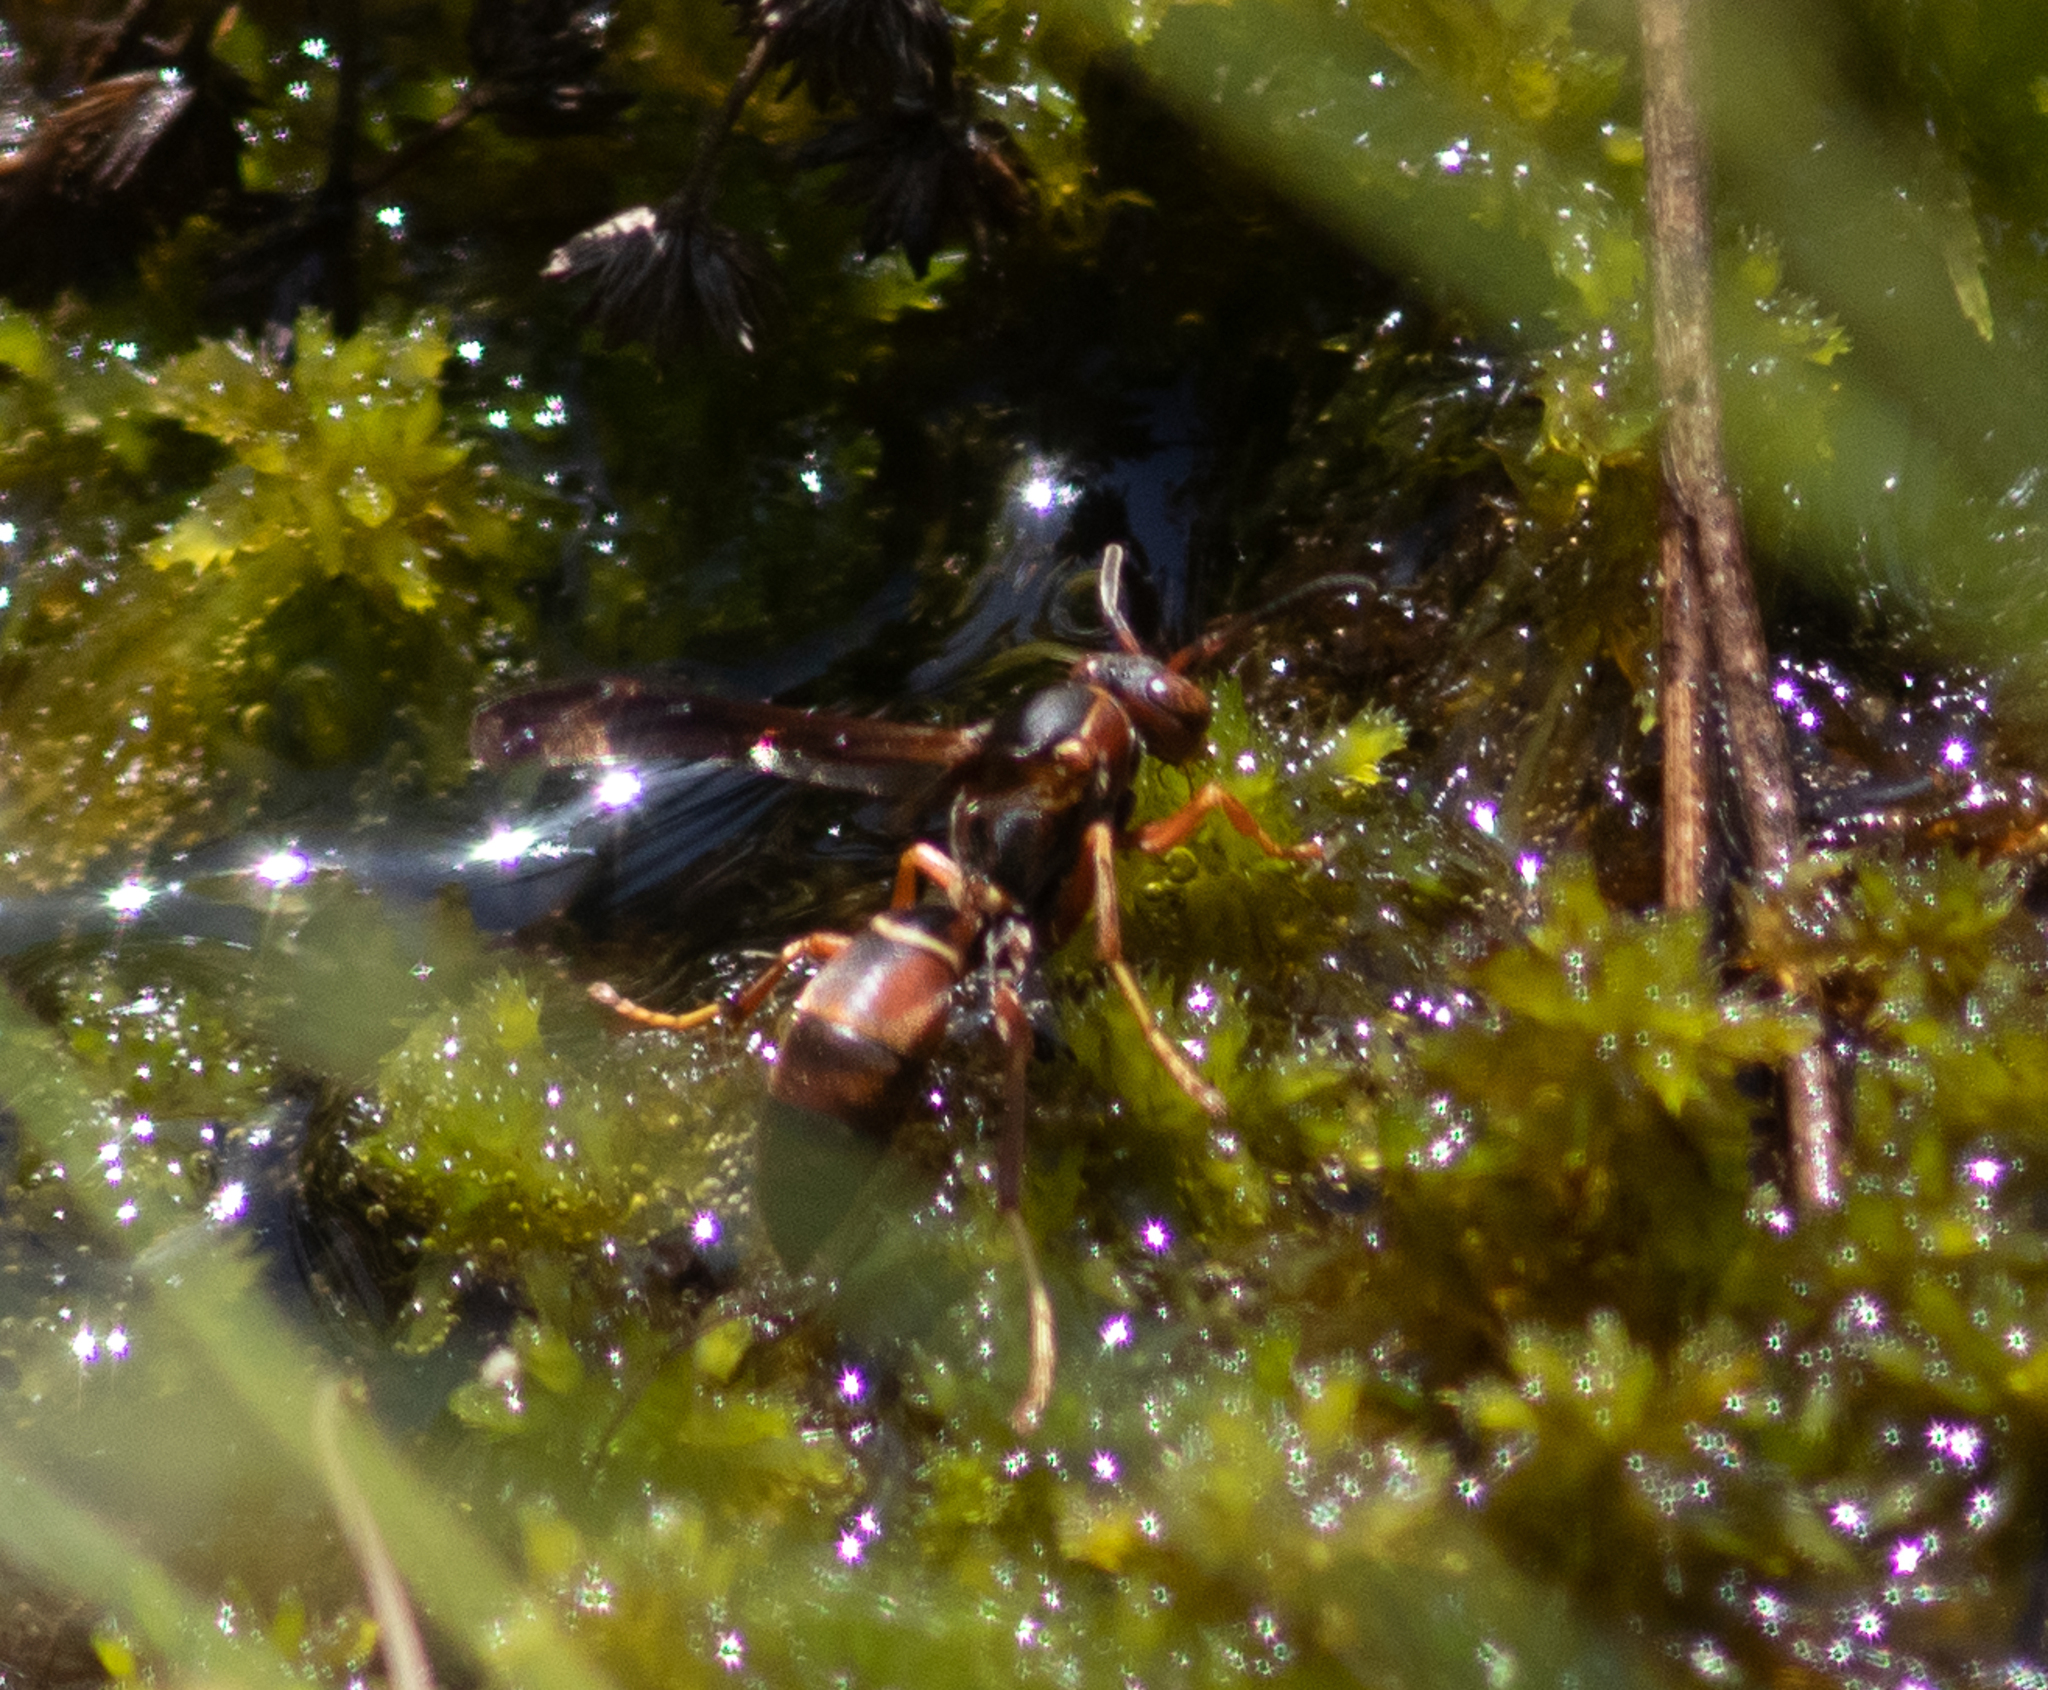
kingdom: Animalia
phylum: Arthropoda
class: Insecta
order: Hymenoptera
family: Eumenidae
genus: Polistes
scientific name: Polistes fuscatus
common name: Dark paper wasp
